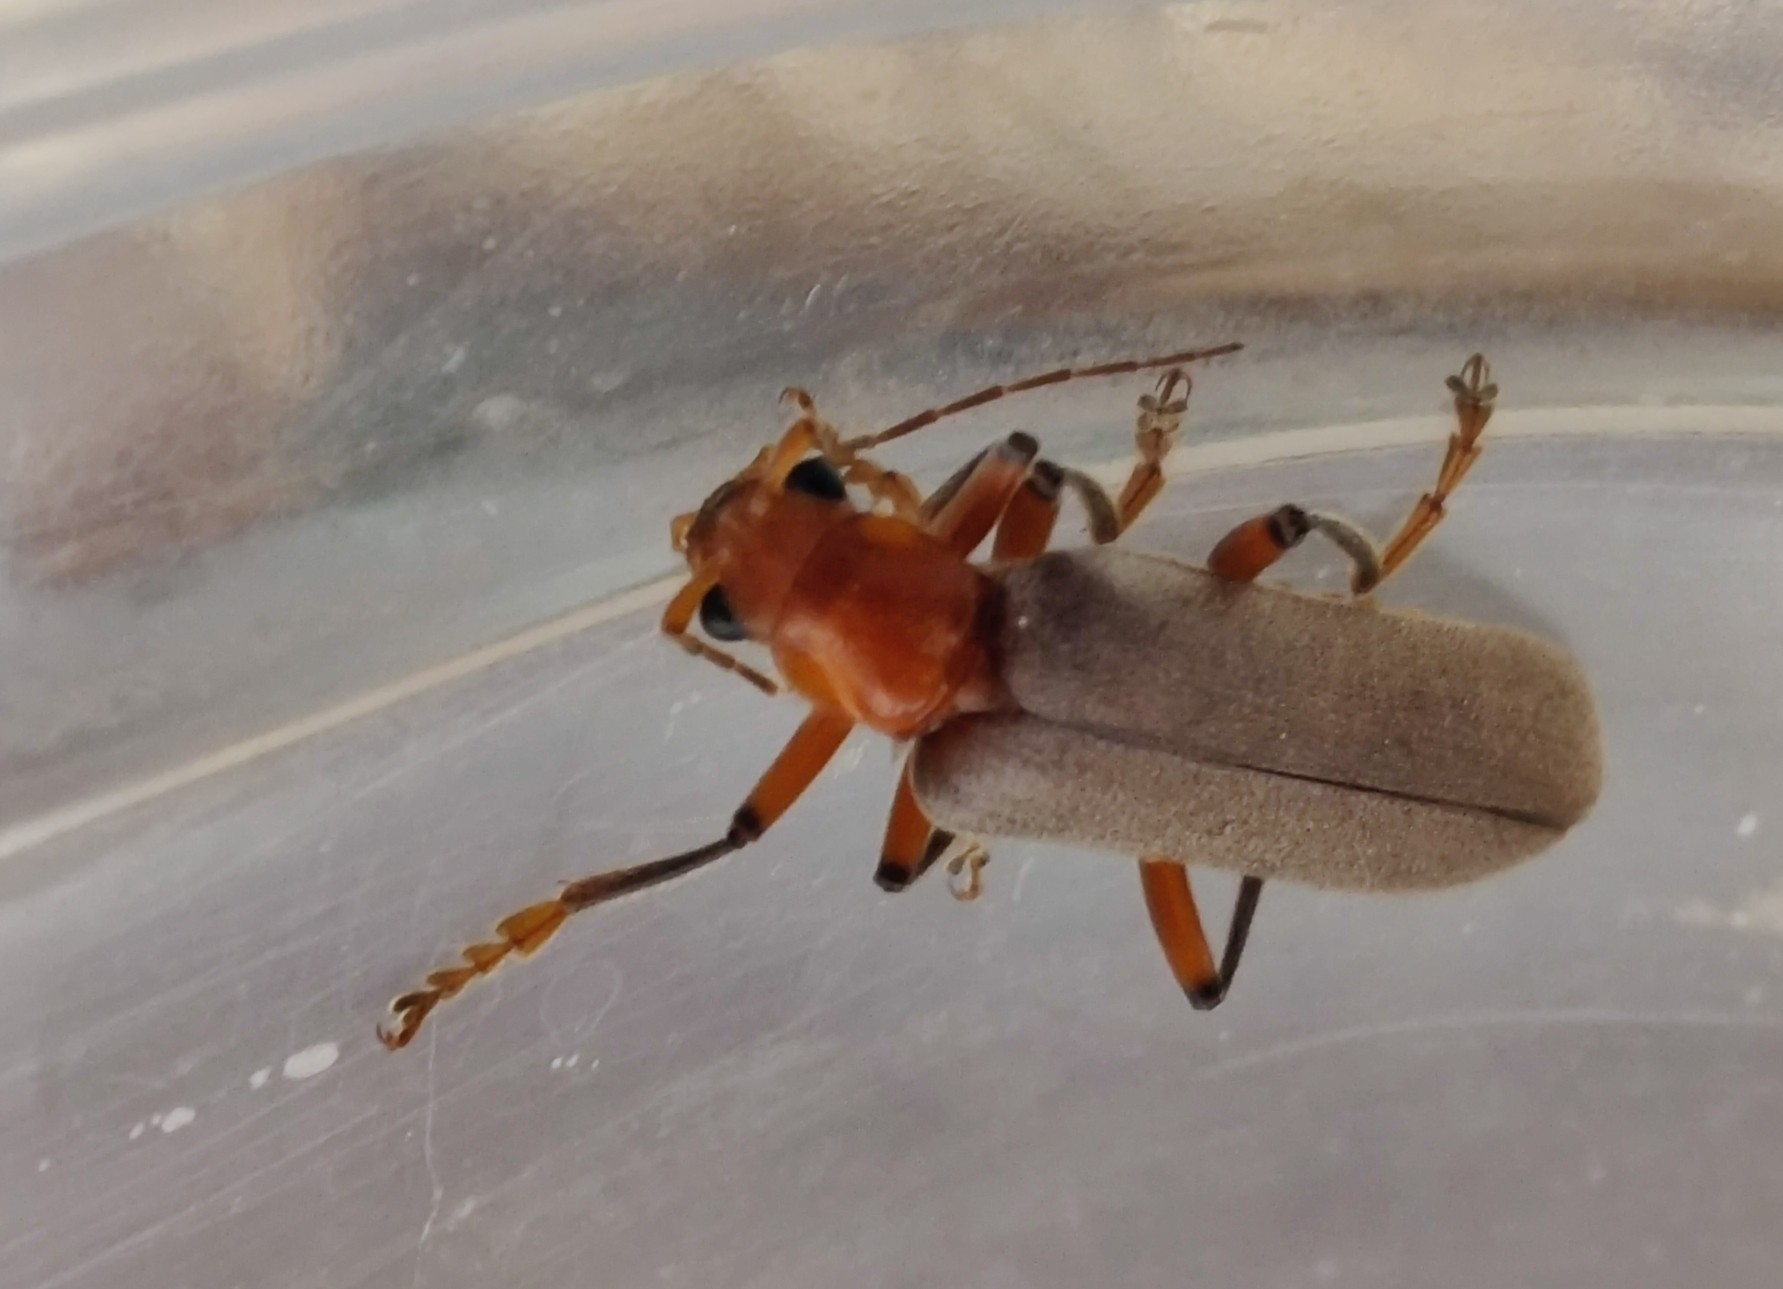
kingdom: Animalia
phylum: Arthropoda
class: Insecta
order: Coleoptera
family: Cantharidae
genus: Pacificanthia
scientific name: Pacificanthia consors
